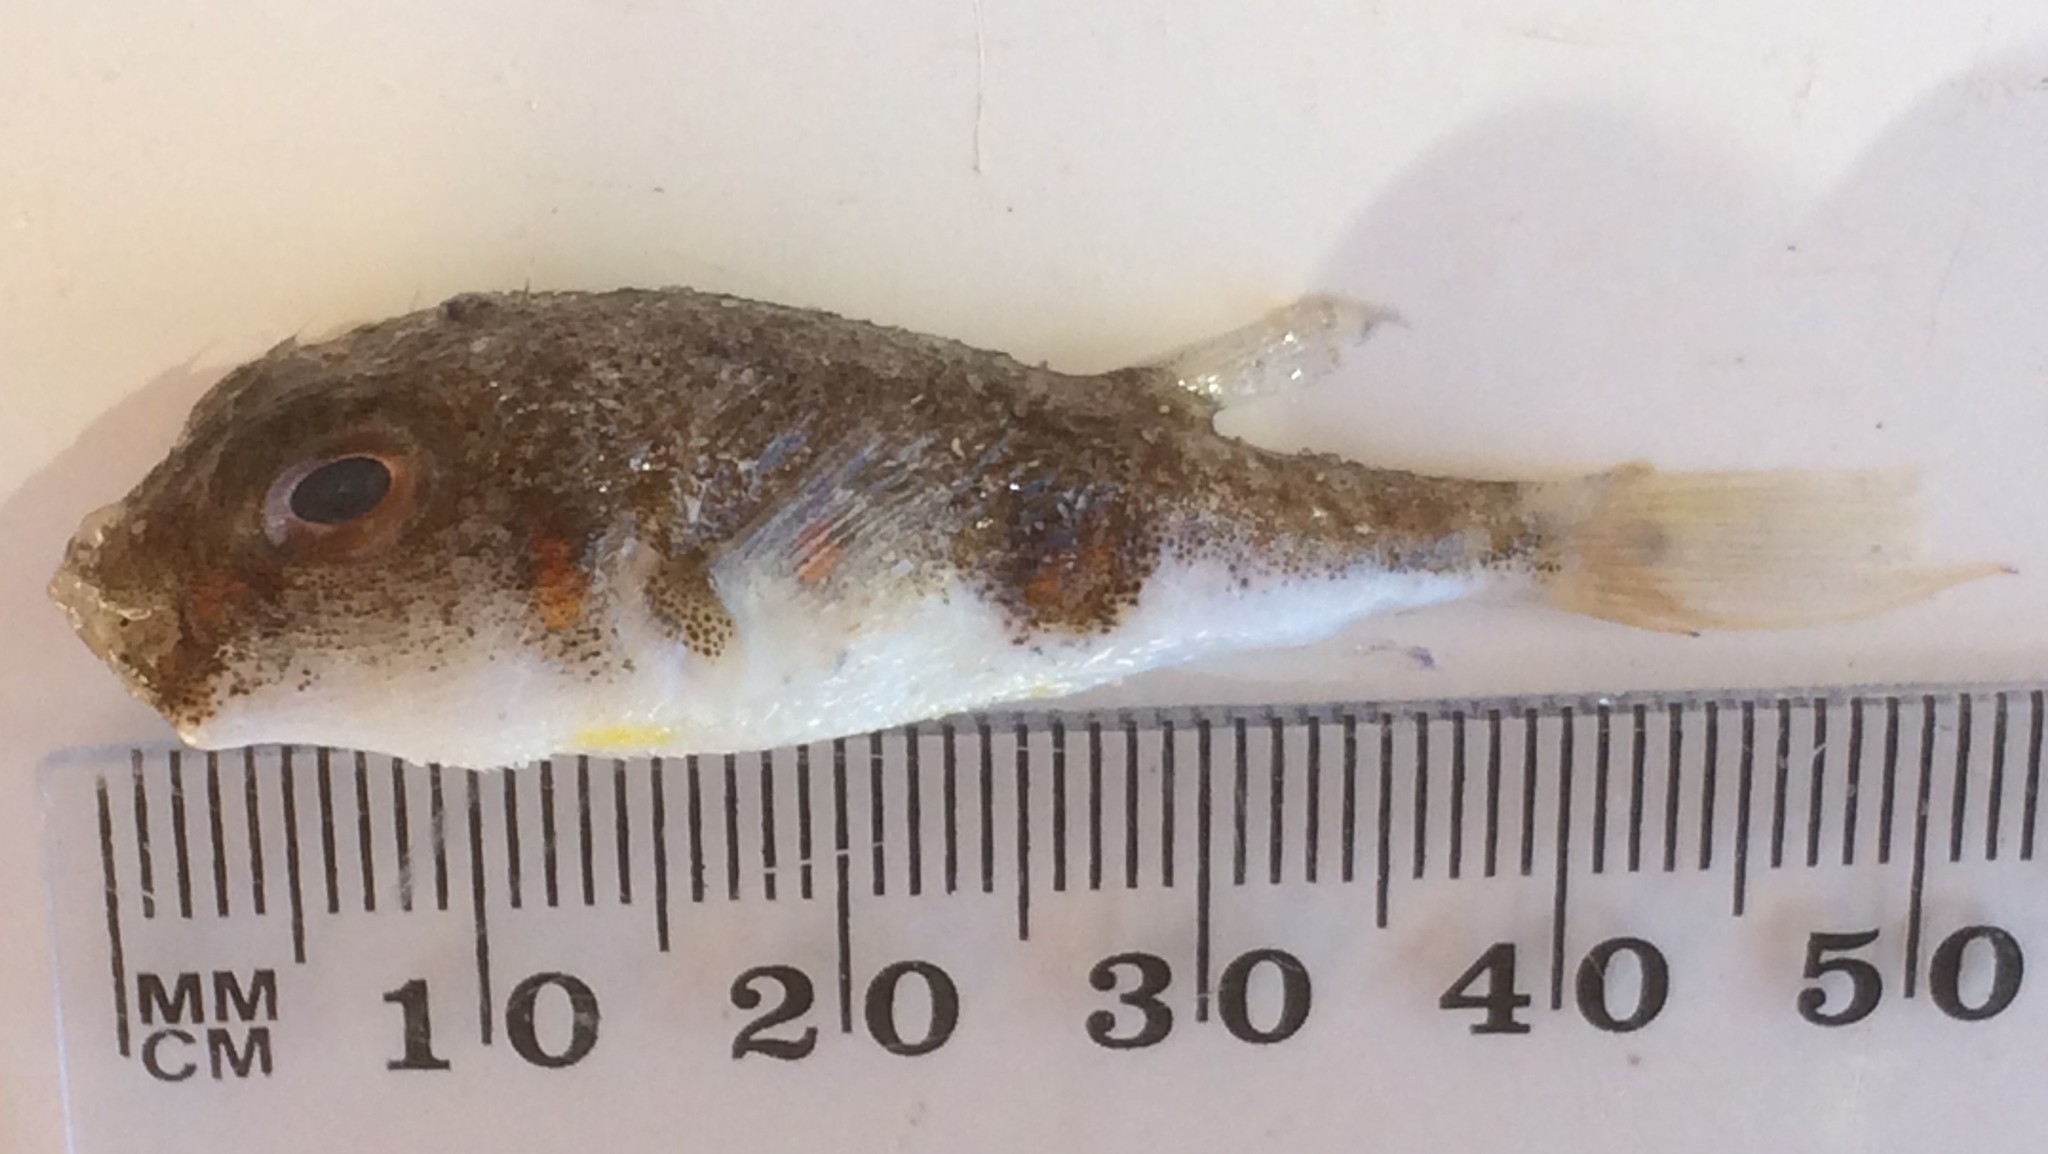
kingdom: Animalia
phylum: Chordata
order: Tetraodontiformes
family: Tetraodontidae
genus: Polyspina
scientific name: Polyspina piosae
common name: Orange-barred pufferfish
